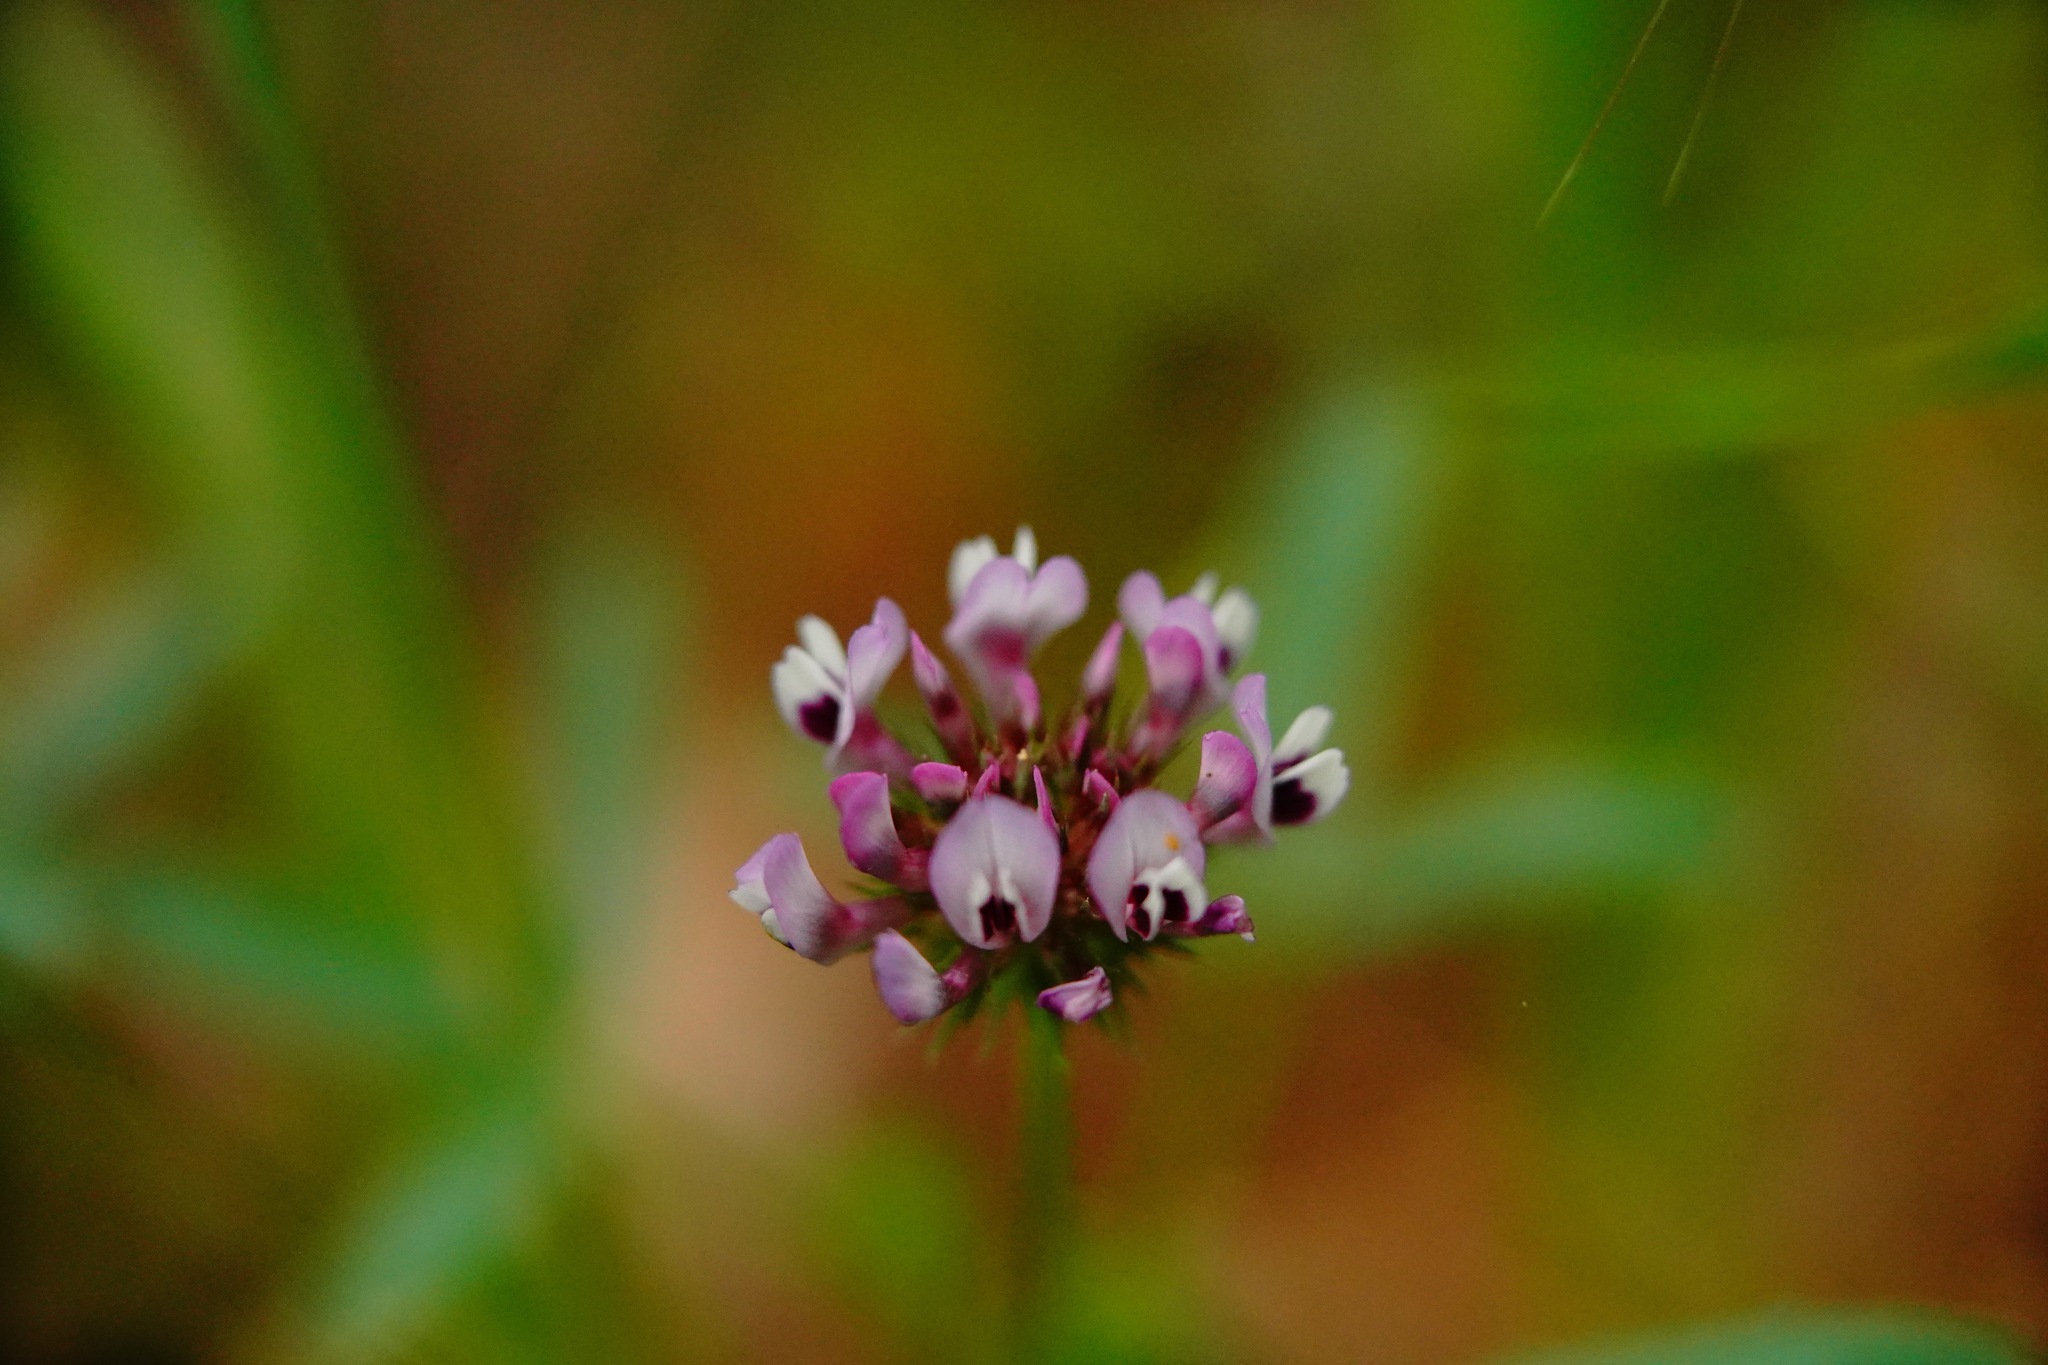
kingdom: Plantae
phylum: Tracheophyta
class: Magnoliopsida
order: Fabales
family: Fabaceae
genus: Trifolium
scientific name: Trifolium willdenovii
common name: Tomcat clover
